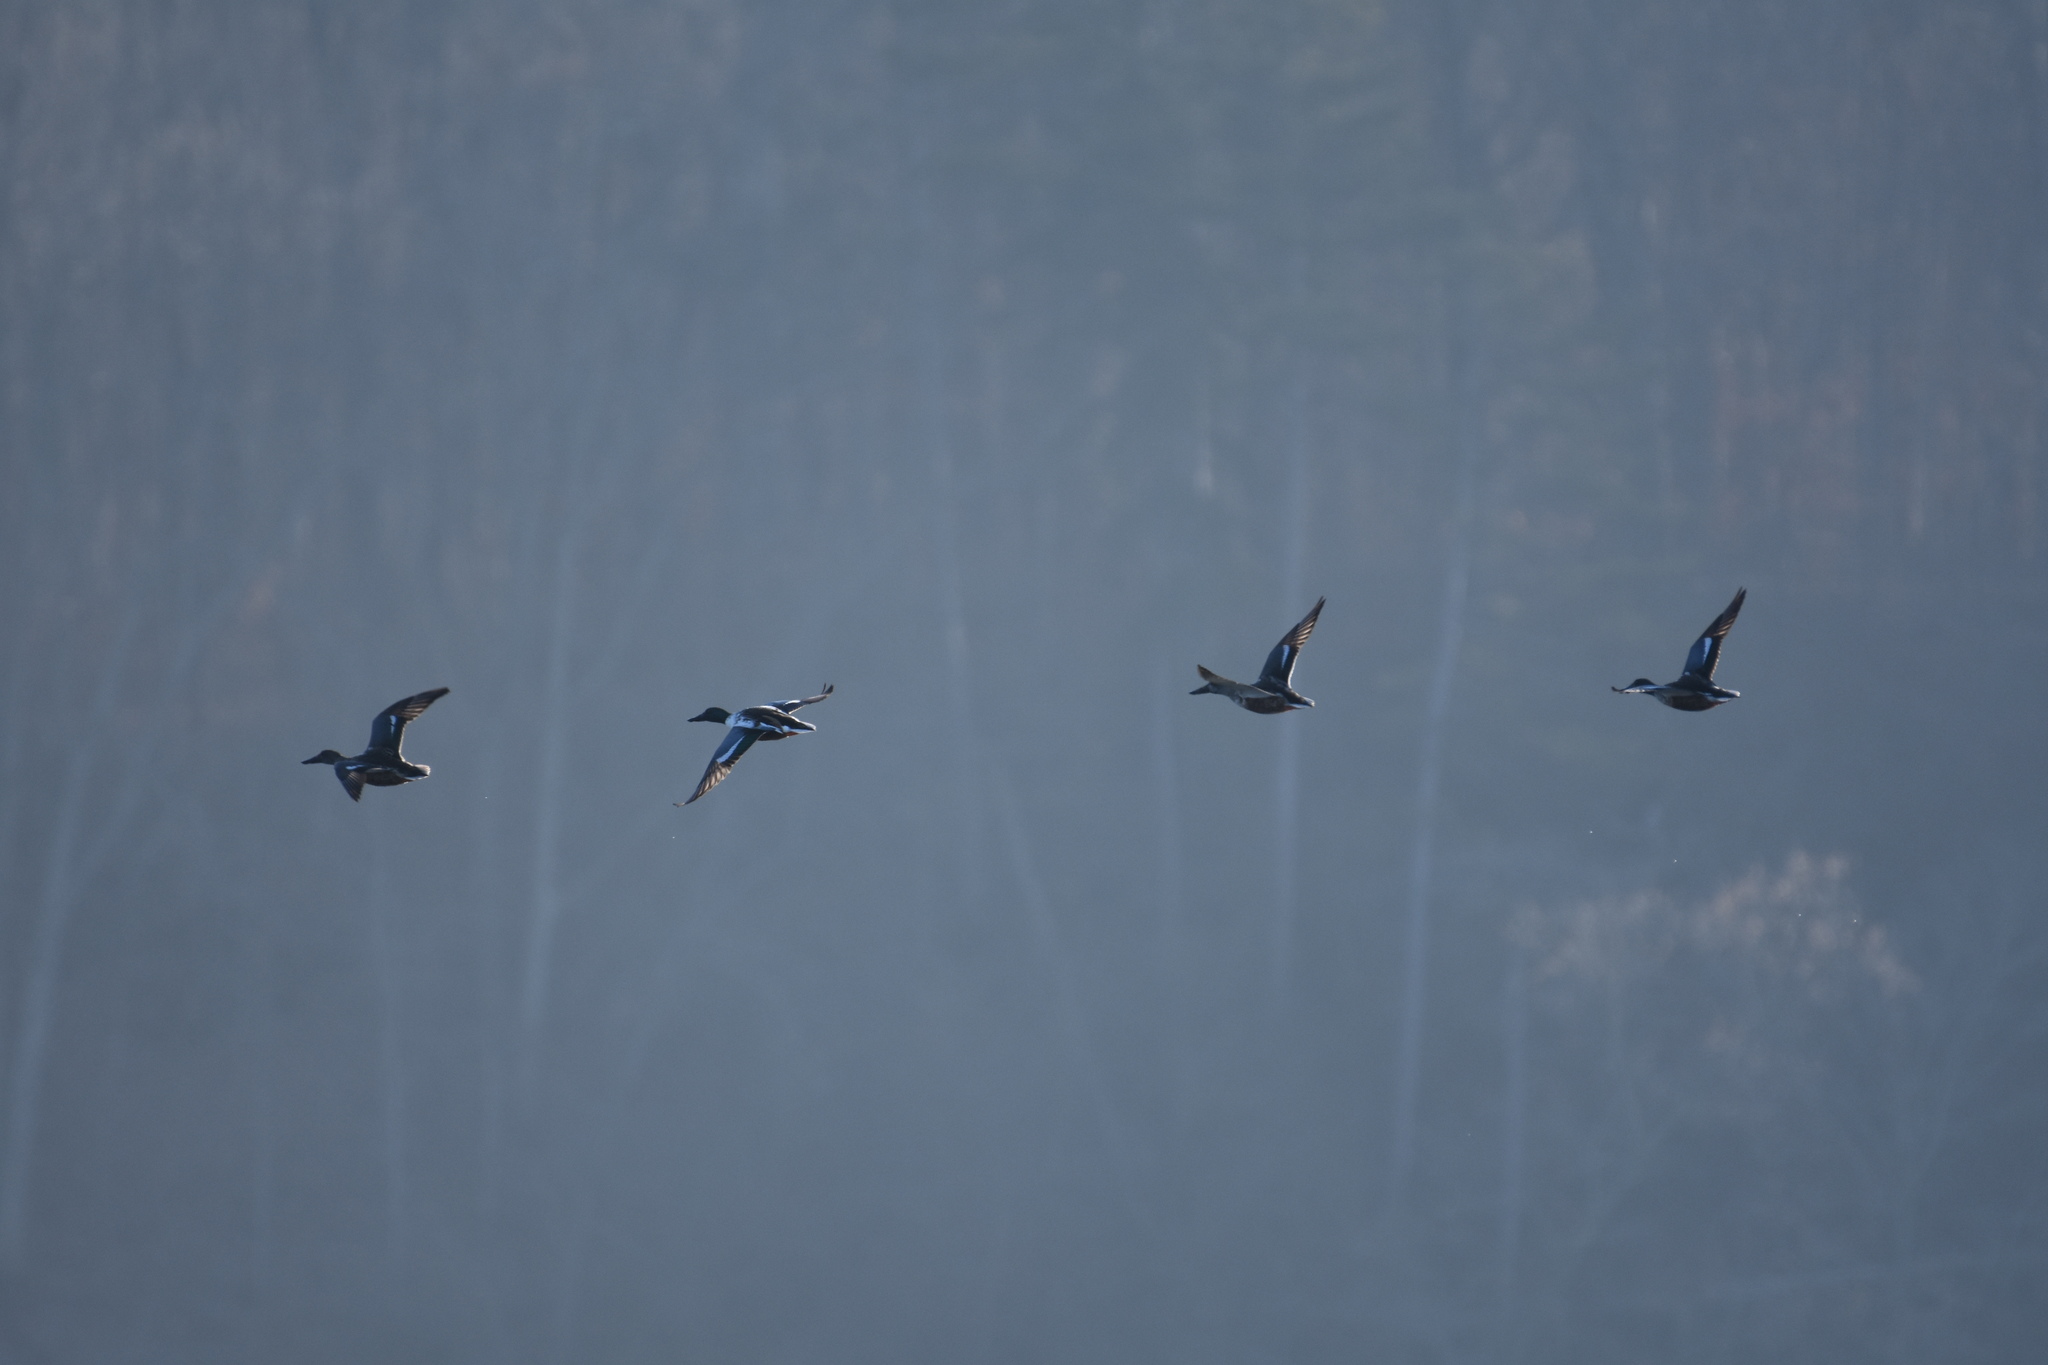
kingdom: Animalia
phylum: Chordata
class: Aves
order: Anseriformes
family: Anatidae
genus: Spatula
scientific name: Spatula clypeata
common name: Northern shoveler
